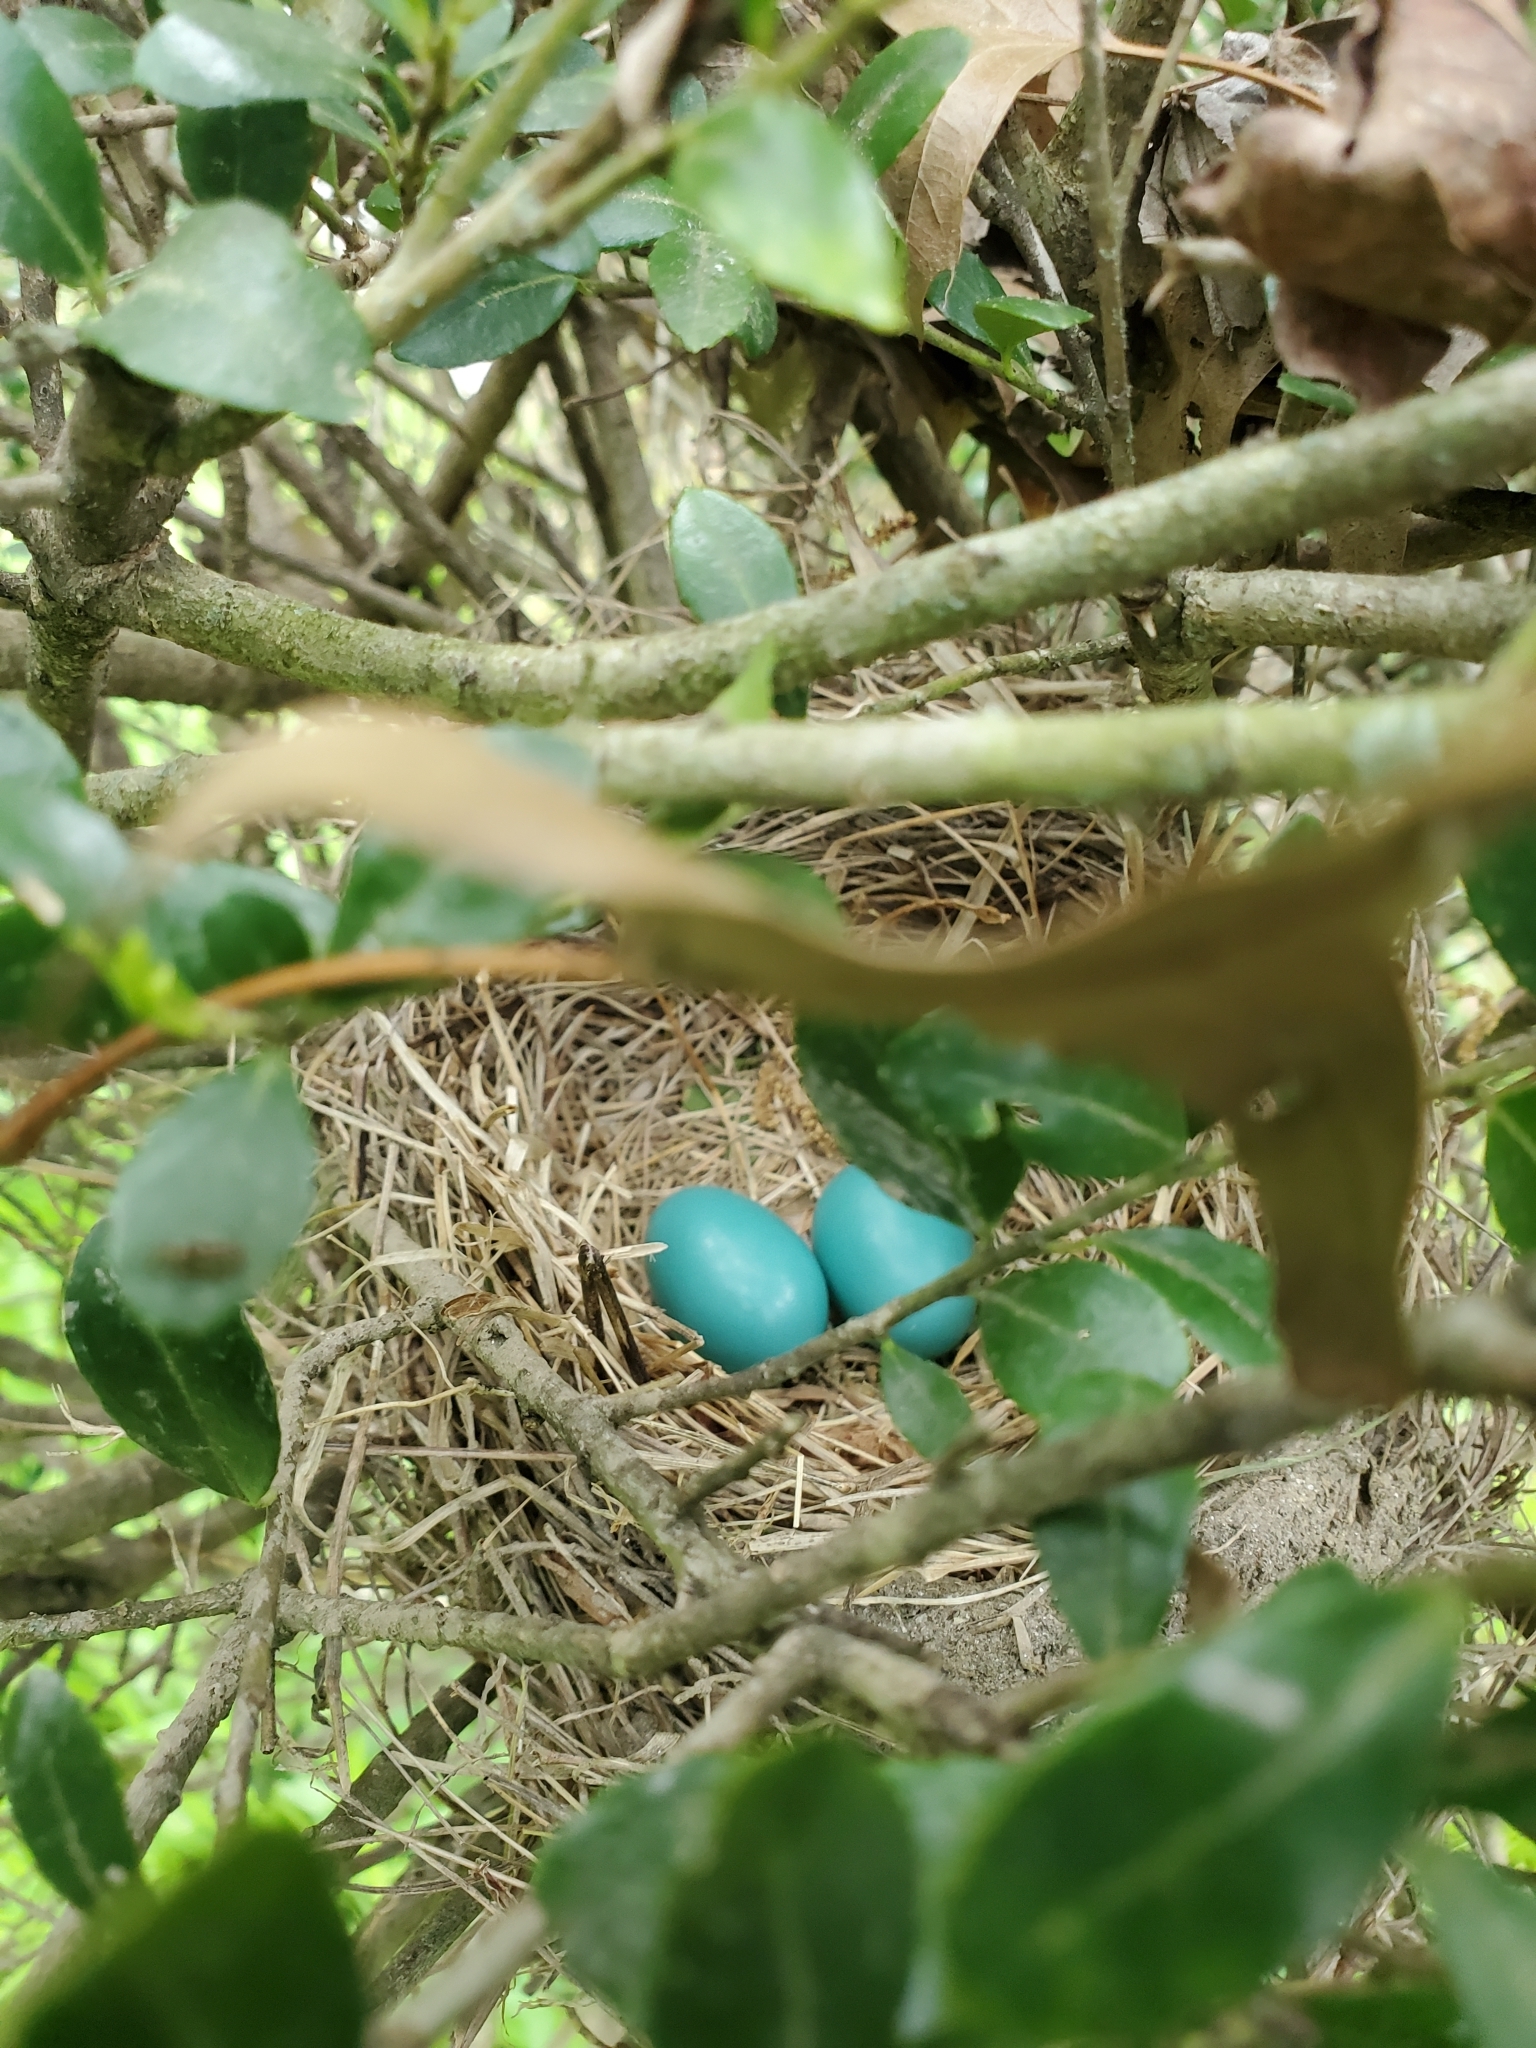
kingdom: Animalia
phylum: Chordata
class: Aves
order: Passeriformes
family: Turdidae
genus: Turdus
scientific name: Turdus migratorius
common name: American robin
